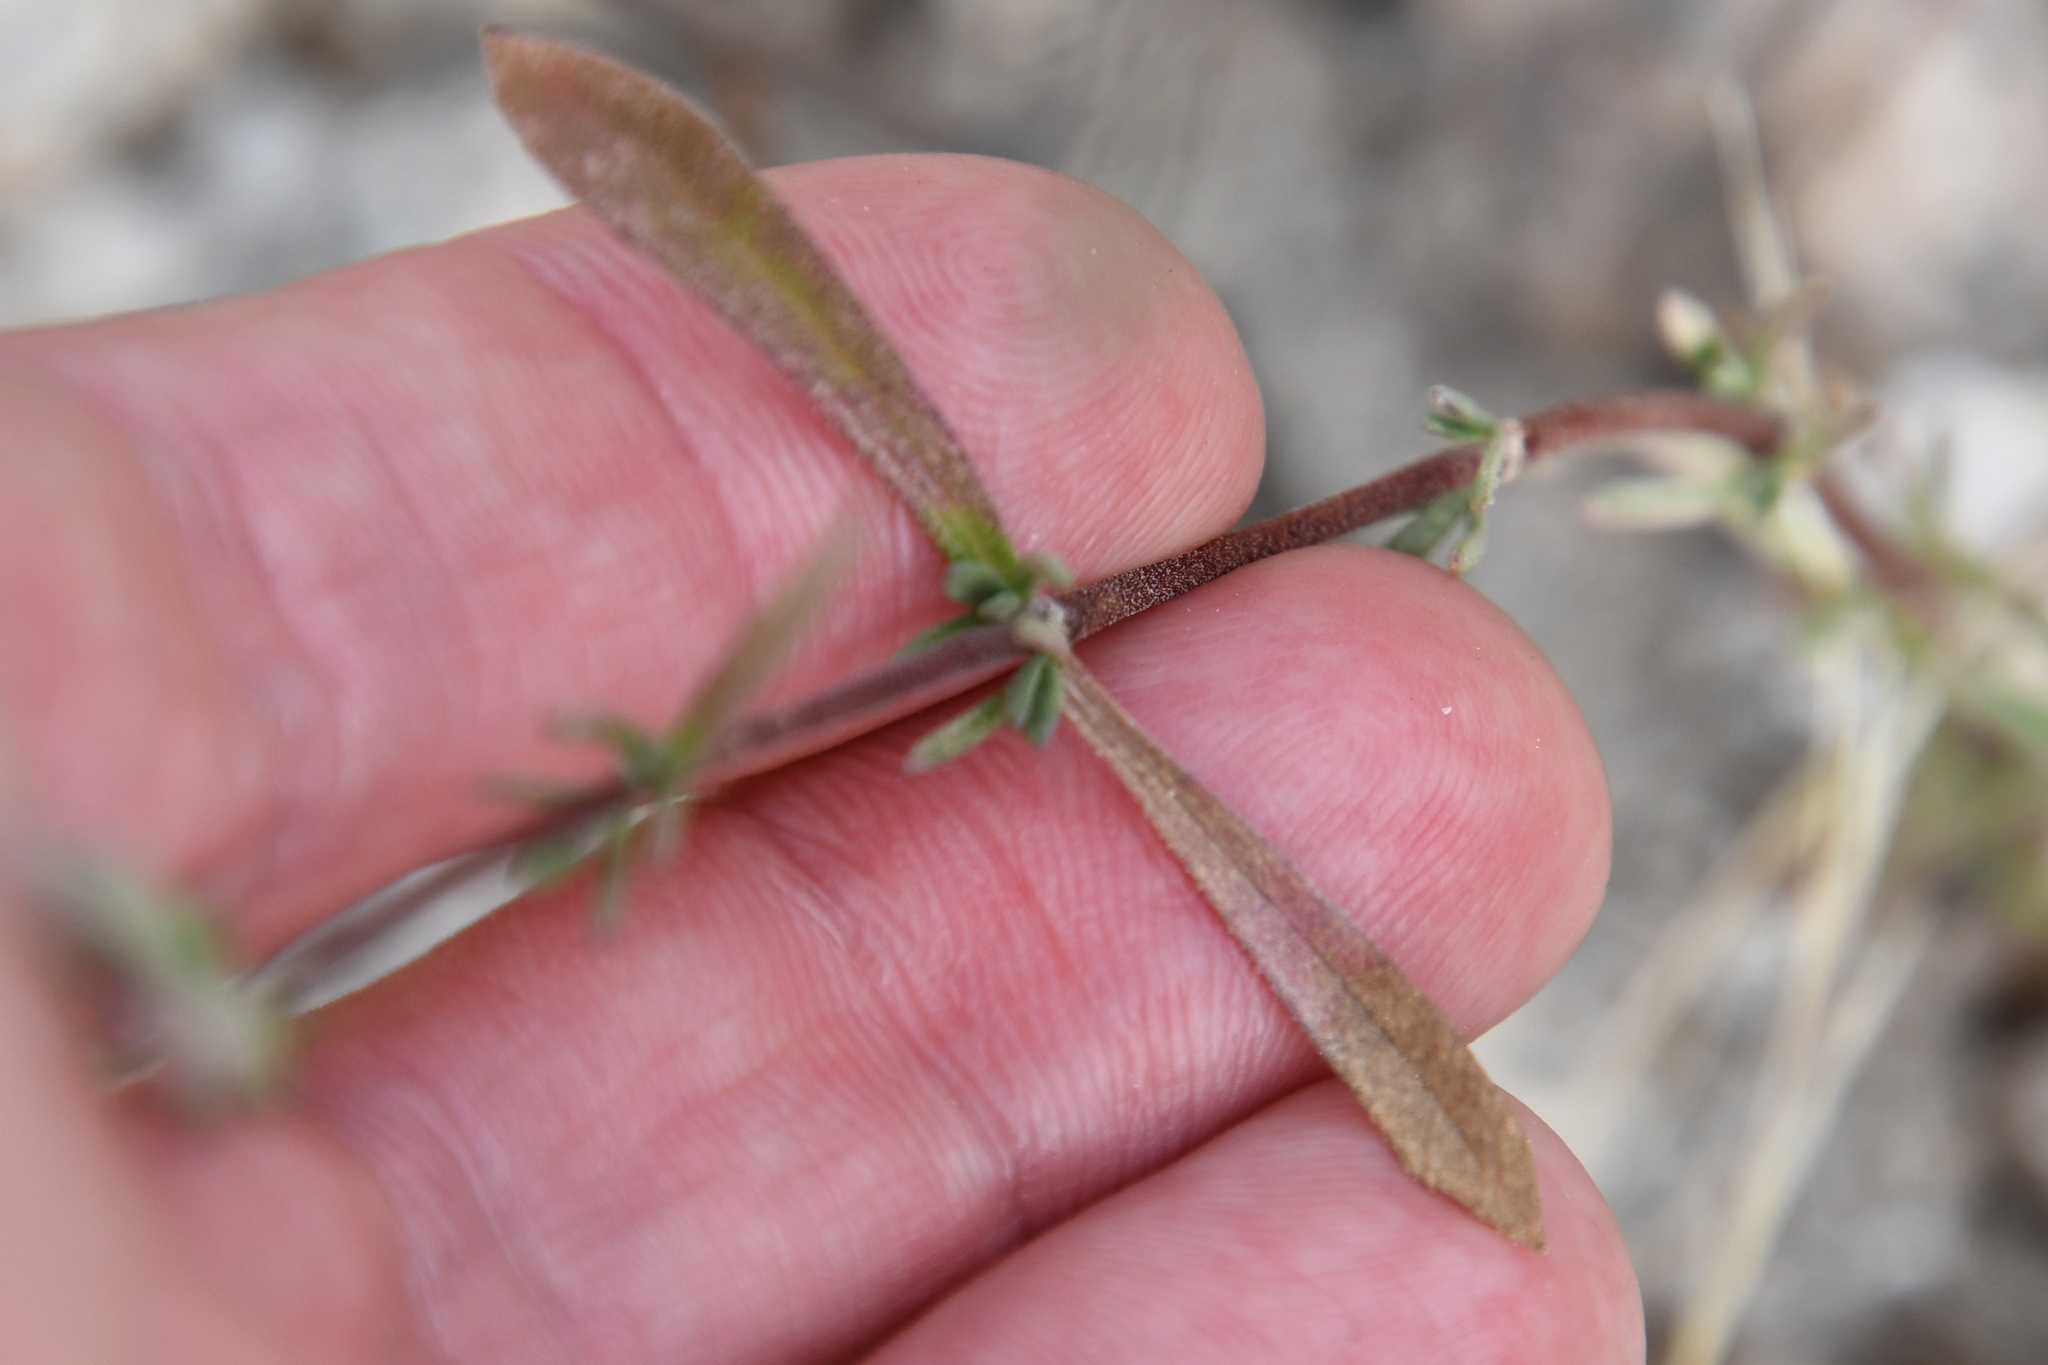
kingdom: Plantae
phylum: Tracheophyta
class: Magnoliopsida
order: Asterales
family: Asteraceae
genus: Carphochaete
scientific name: Carphochaete bigelovii
